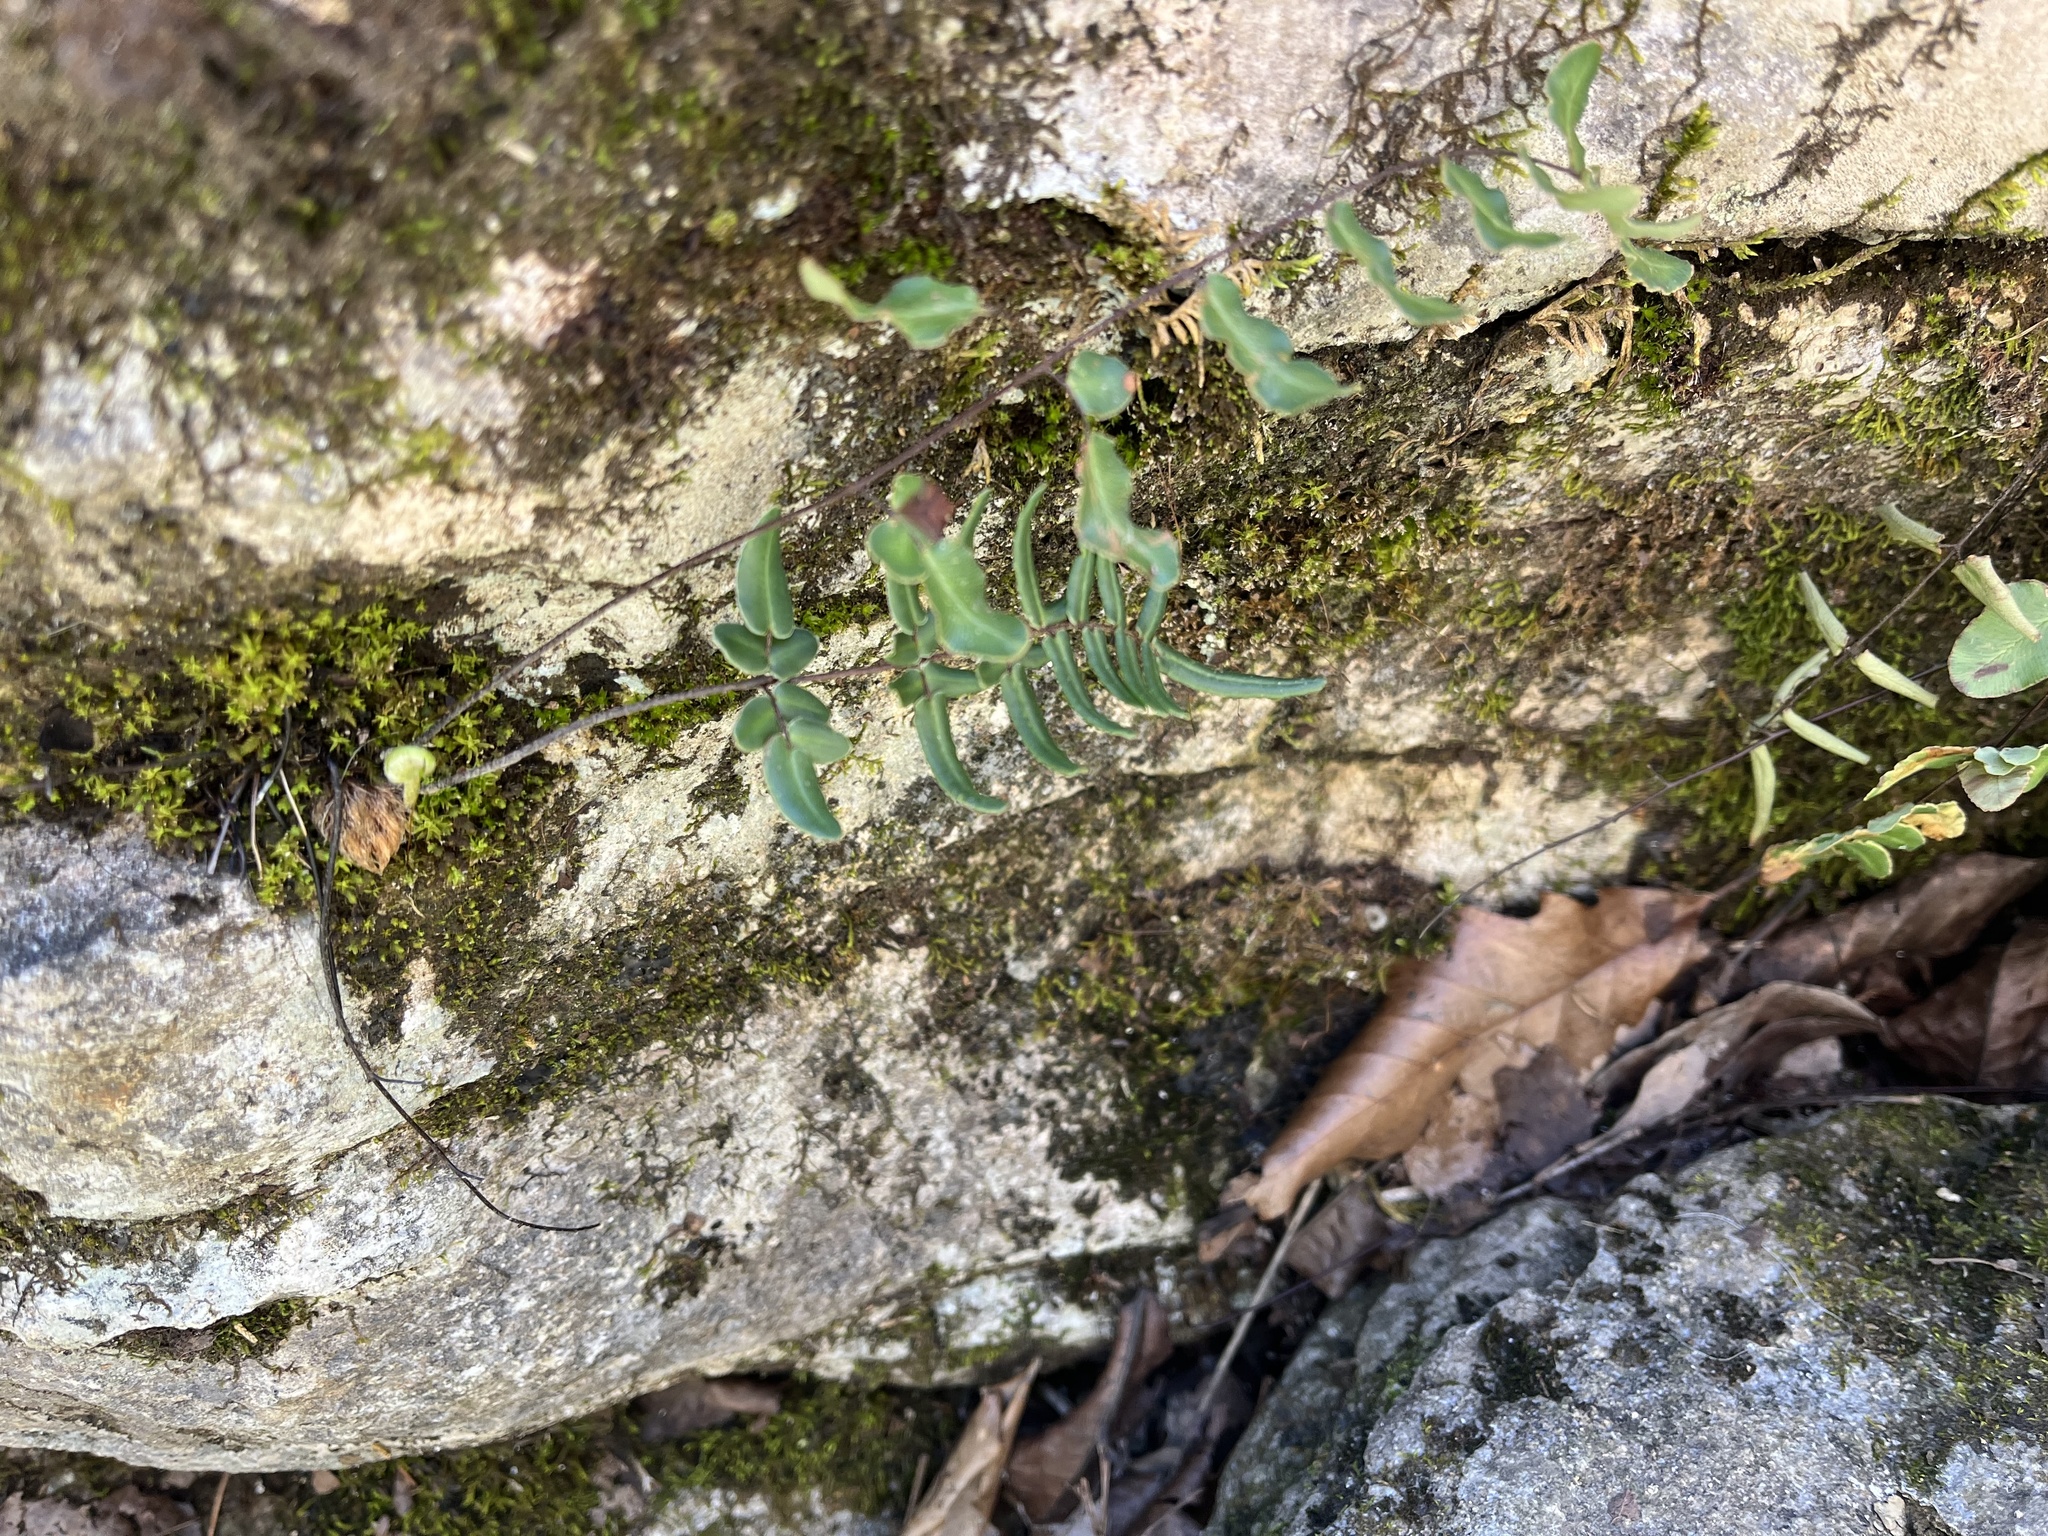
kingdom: Plantae
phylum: Tracheophyta
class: Polypodiopsida
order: Polypodiales
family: Pteridaceae
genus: Pellaea
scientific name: Pellaea atropurpurea
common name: Hairy cliffbrake
